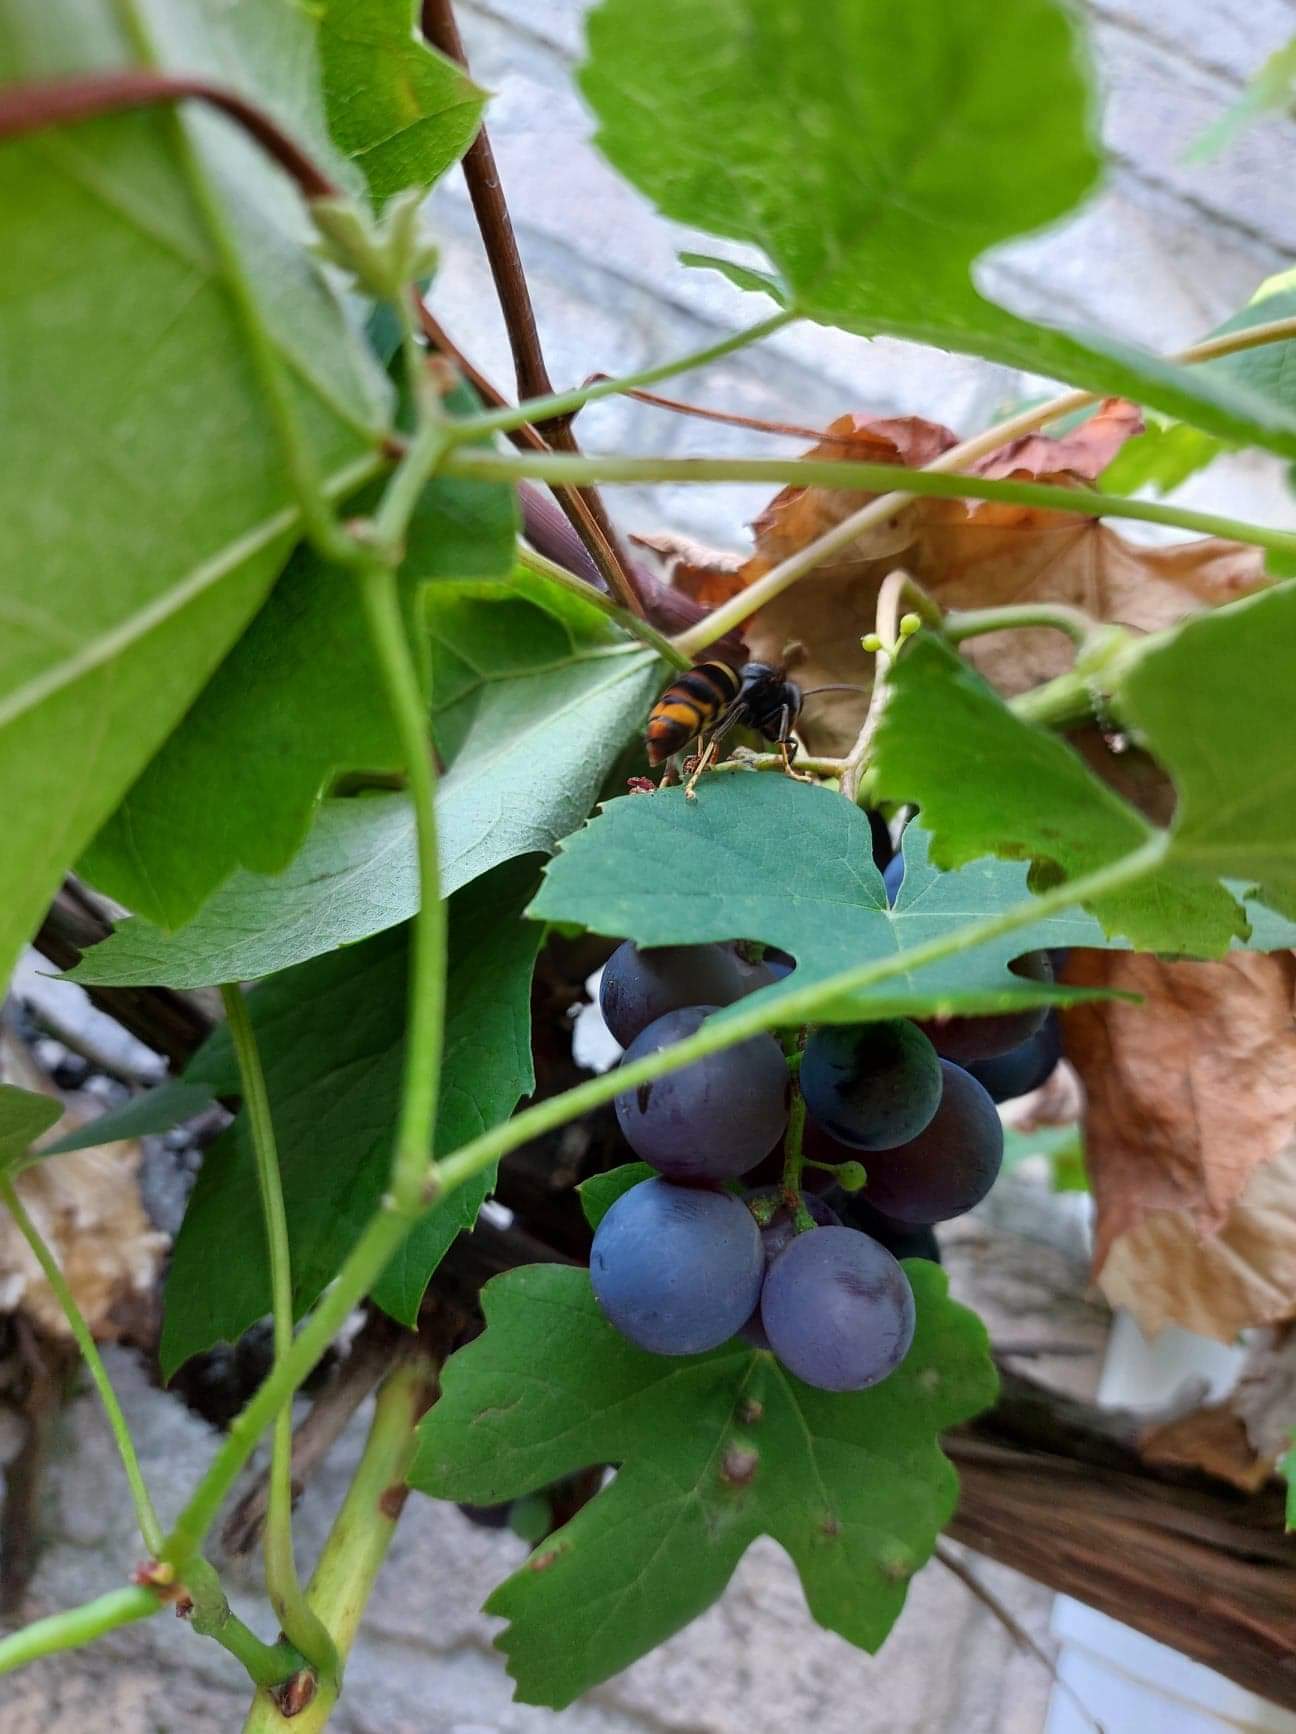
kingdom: Animalia
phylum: Arthropoda
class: Insecta
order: Hymenoptera
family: Vespidae
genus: Vespa
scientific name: Vespa velutina
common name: Asian hornet
